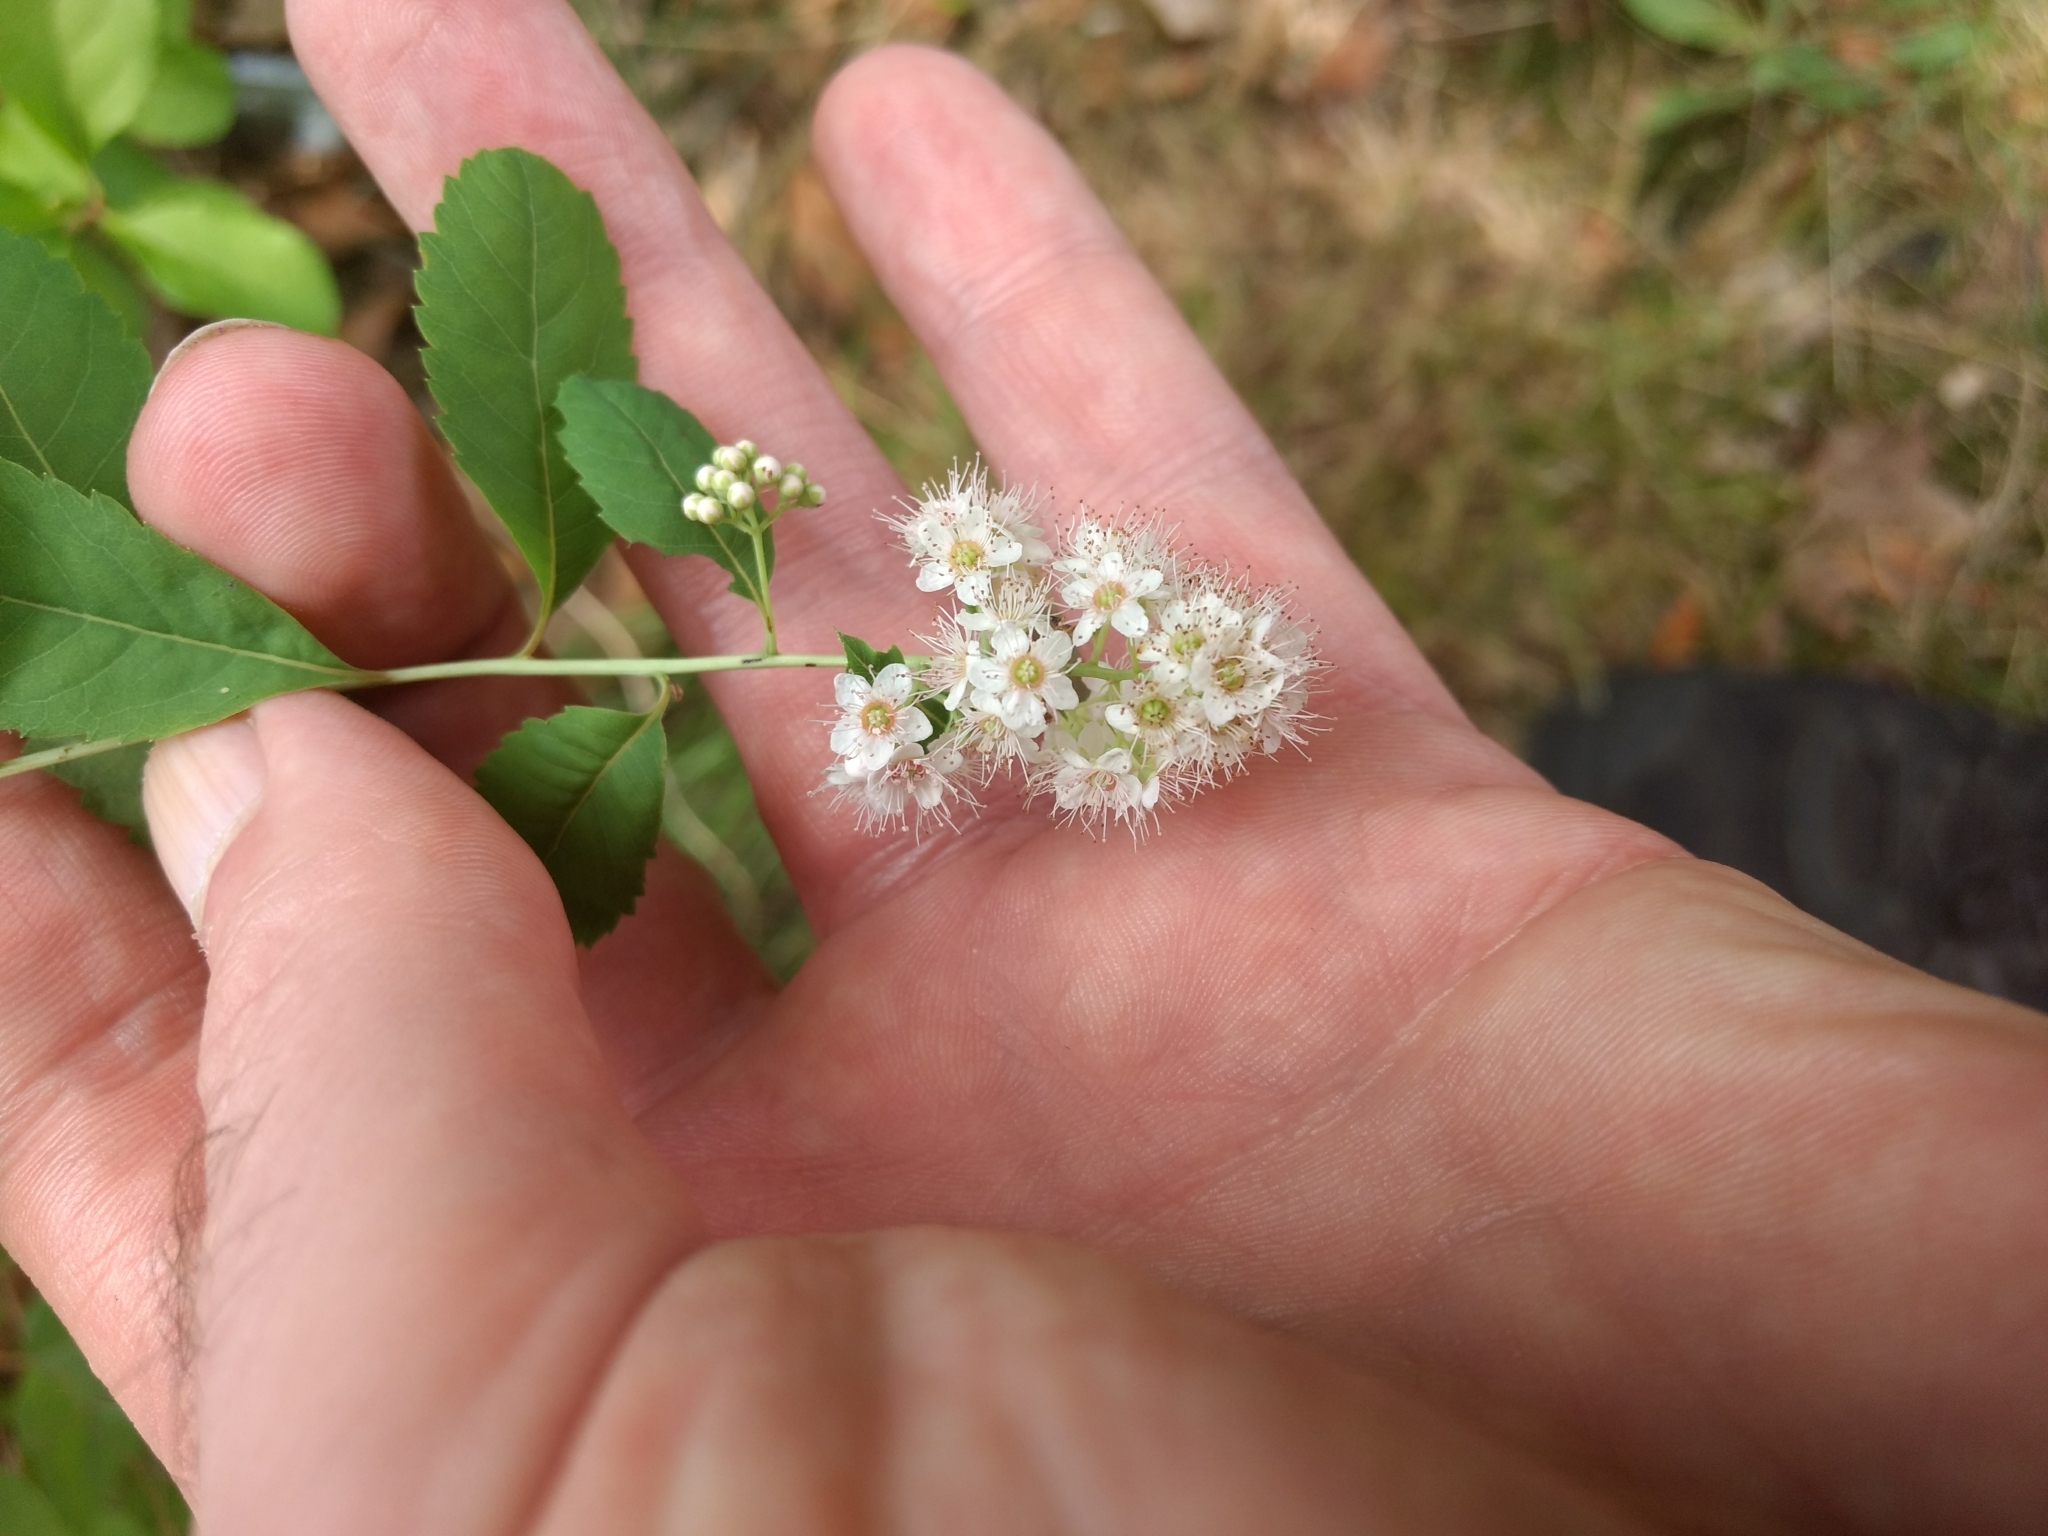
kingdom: Plantae
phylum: Tracheophyta
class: Magnoliopsida
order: Rosales
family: Rosaceae
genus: Spiraea
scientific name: Spiraea alba
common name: Pale bridewort
